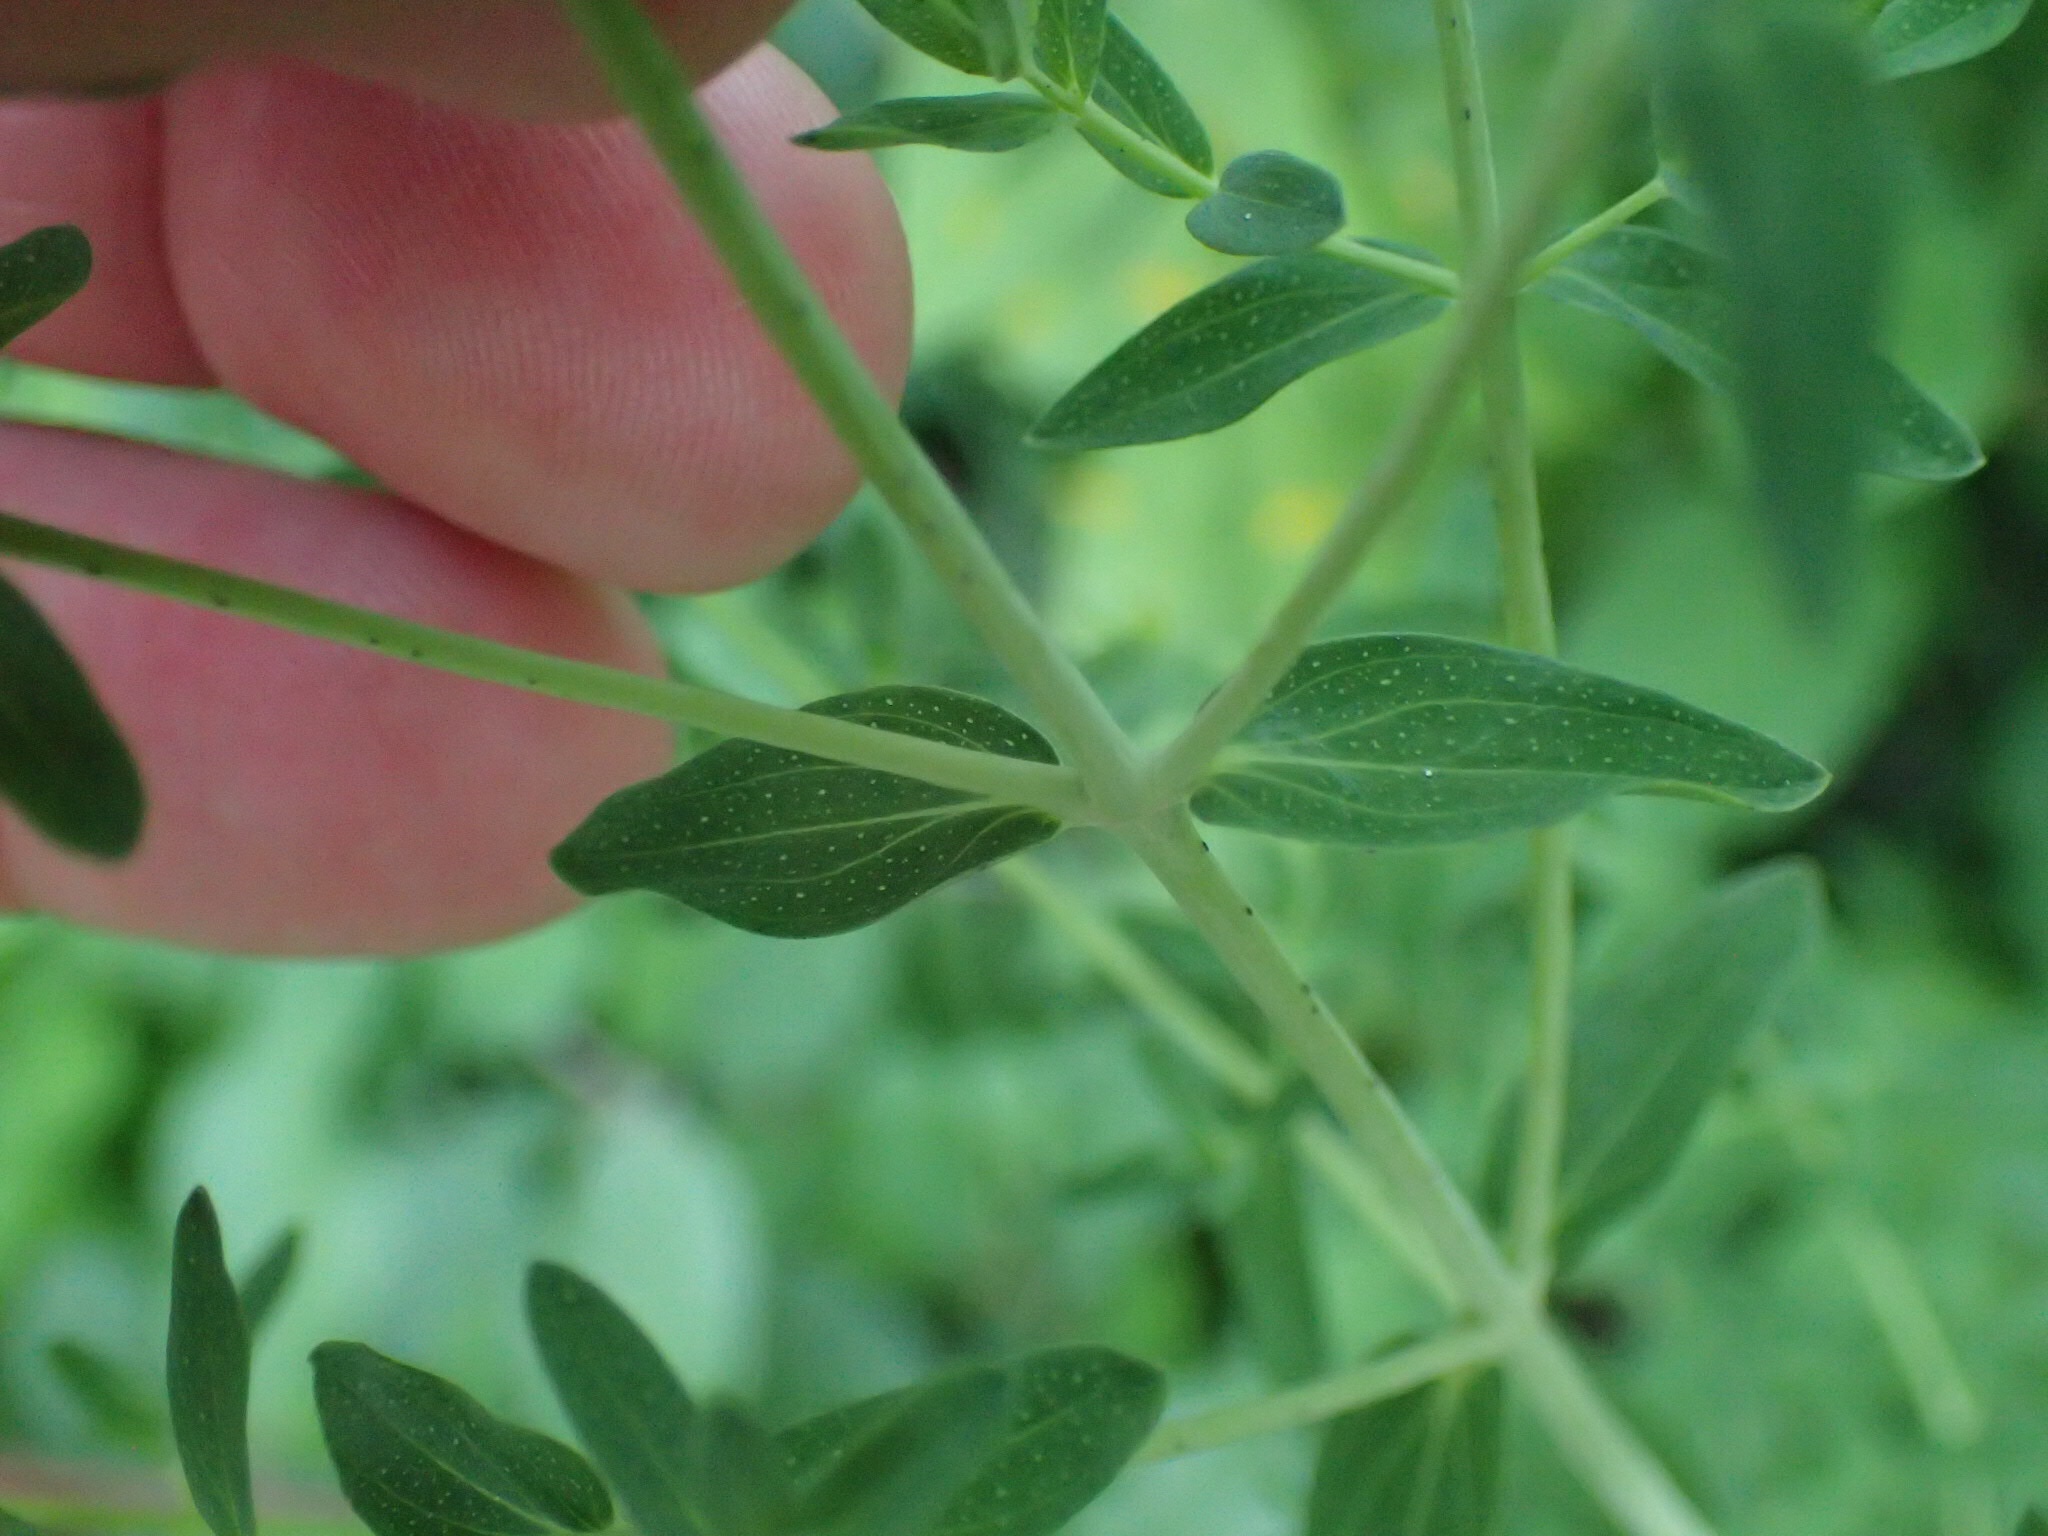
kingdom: Plantae
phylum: Tracheophyta
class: Magnoliopsida
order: Malpighiales
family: Hypericaceae
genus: Hypericum
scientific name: Hypericum perforatum
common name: Common st. johnswort
